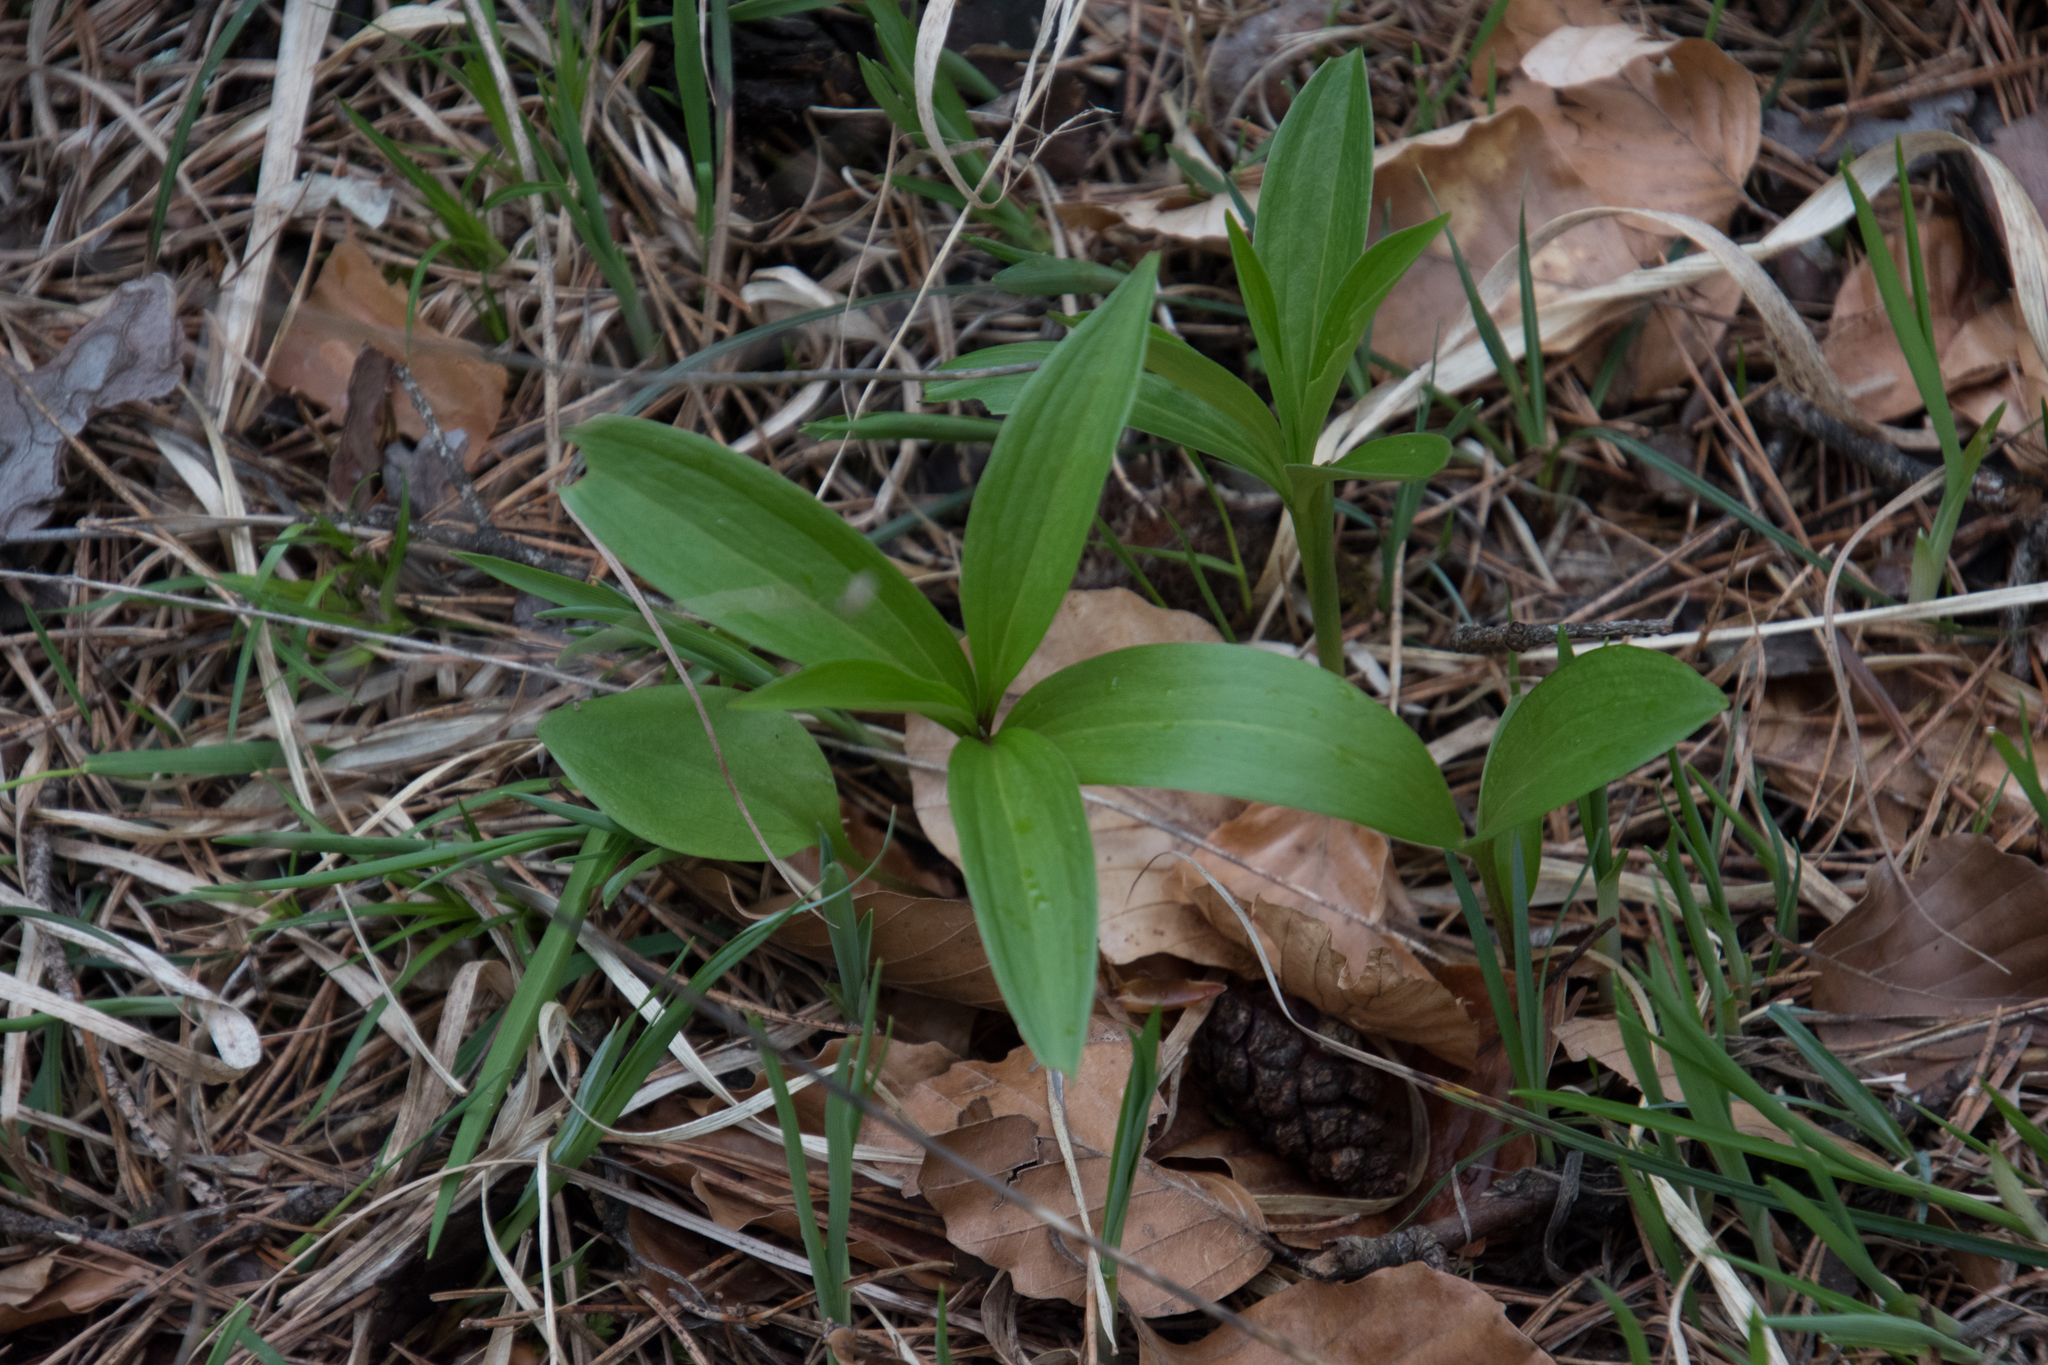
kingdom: Plantae
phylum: Tracheophyta
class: Liliopsida
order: Liliales
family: Liliaceae
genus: Lilium
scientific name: Lilium martagon
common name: Martagon lily
